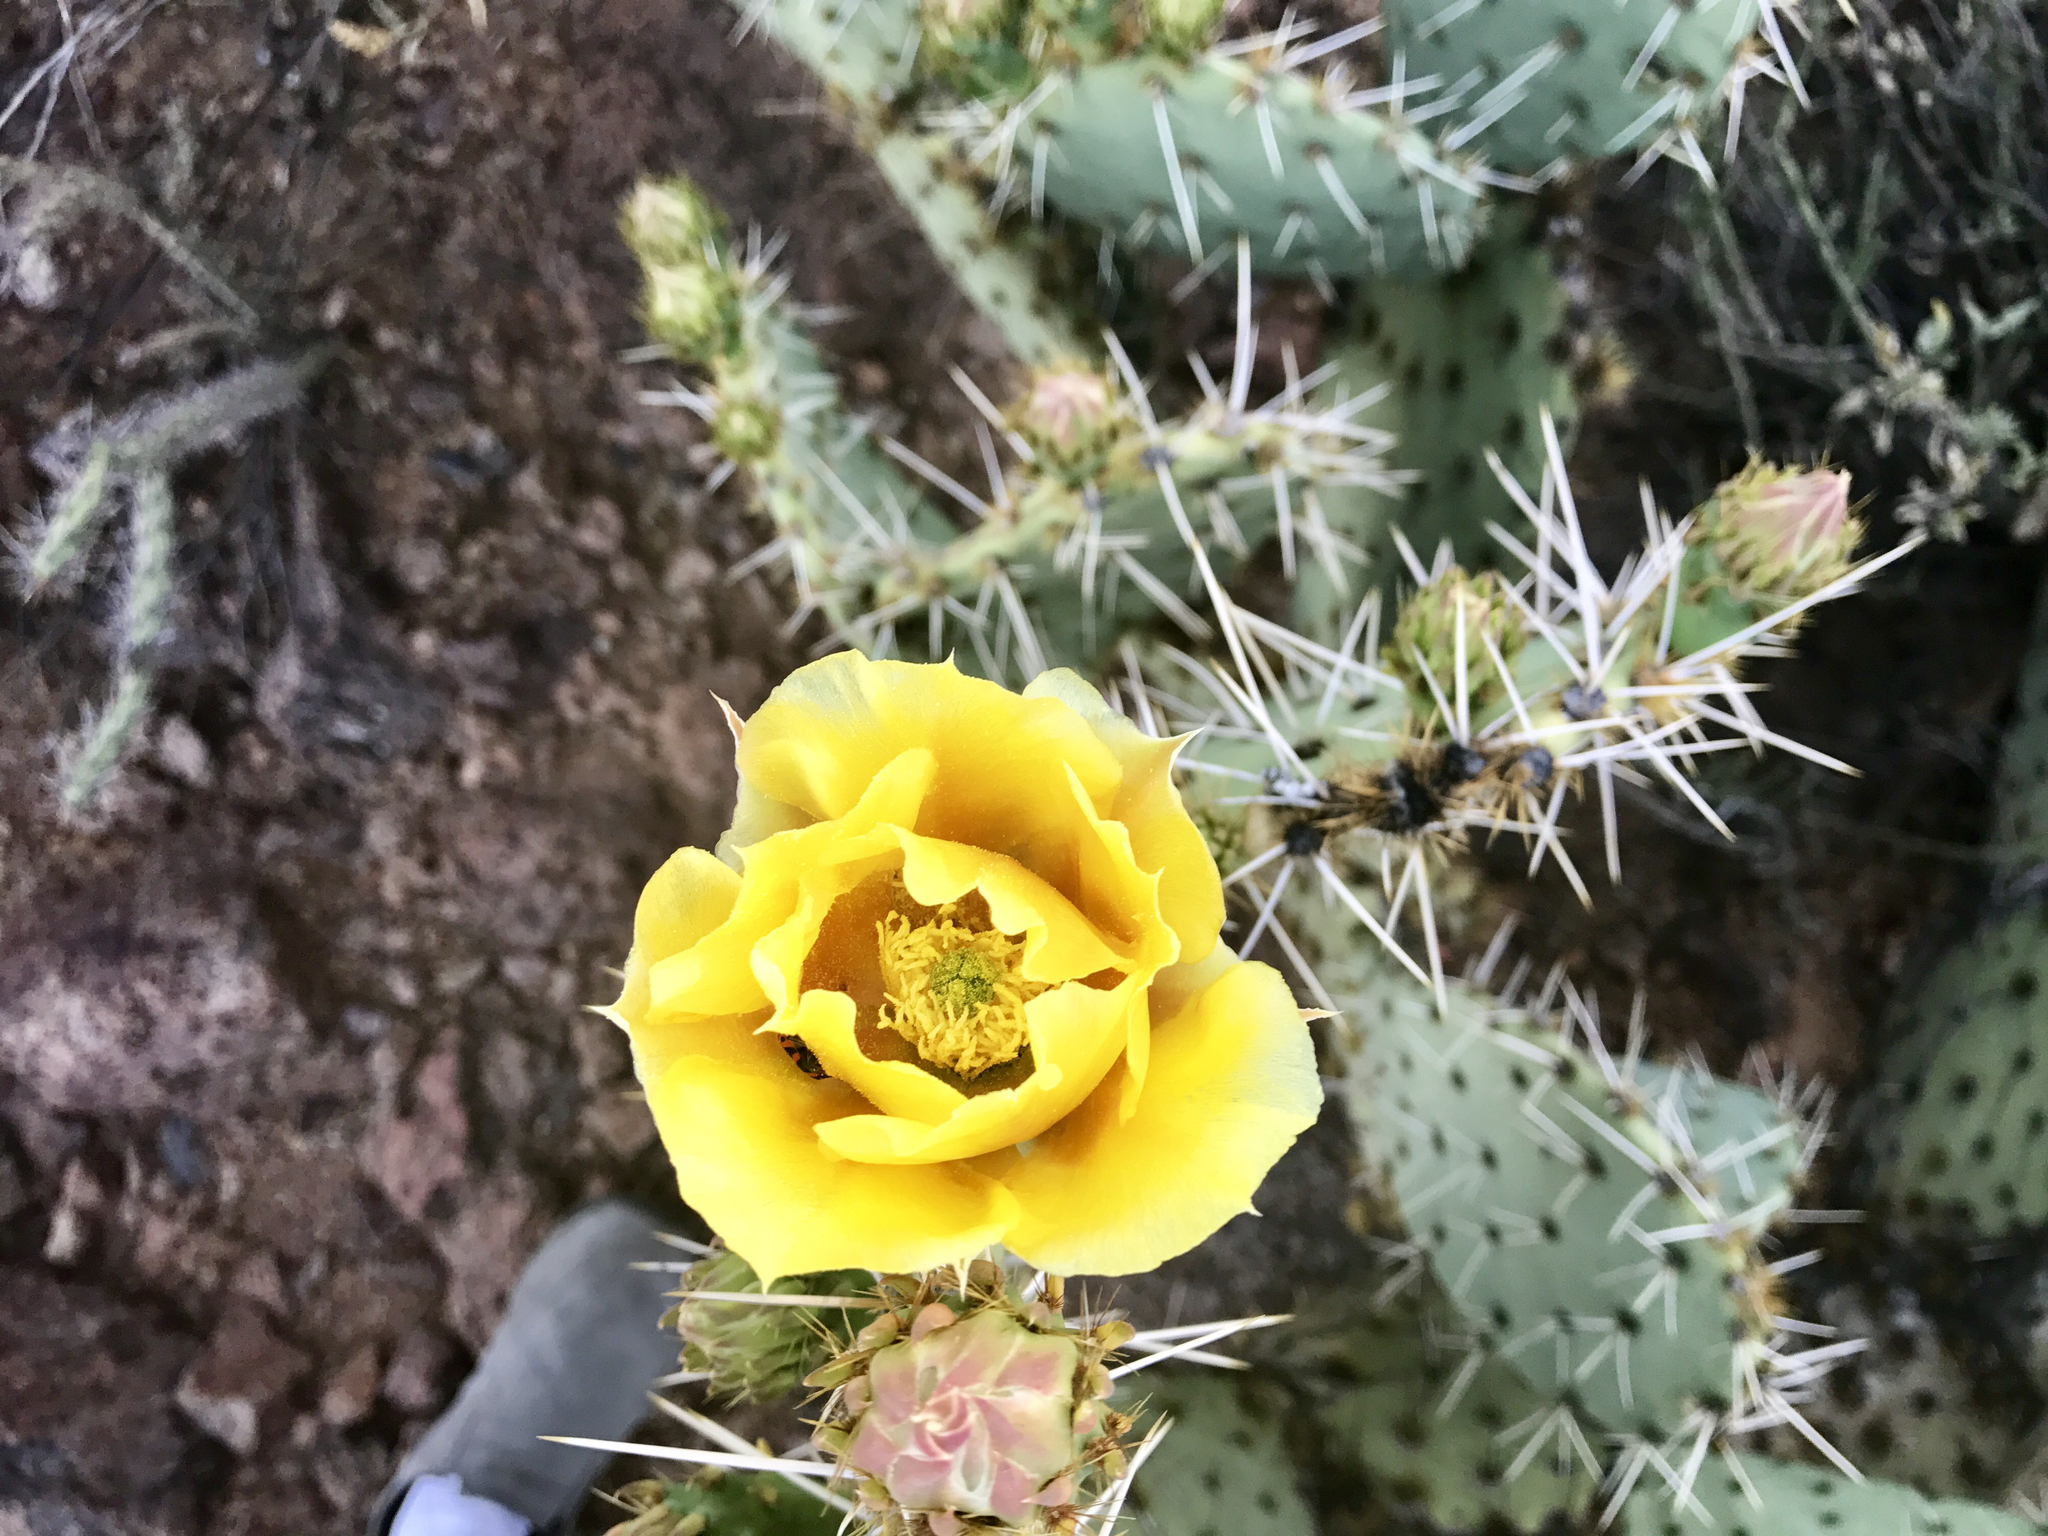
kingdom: Plantae
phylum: Tracheophyta
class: Magnoliopsida
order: Caryophyllales
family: Cactaceae
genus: Opuntia
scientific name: Opuntia engelmannii
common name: Cactus-apple
